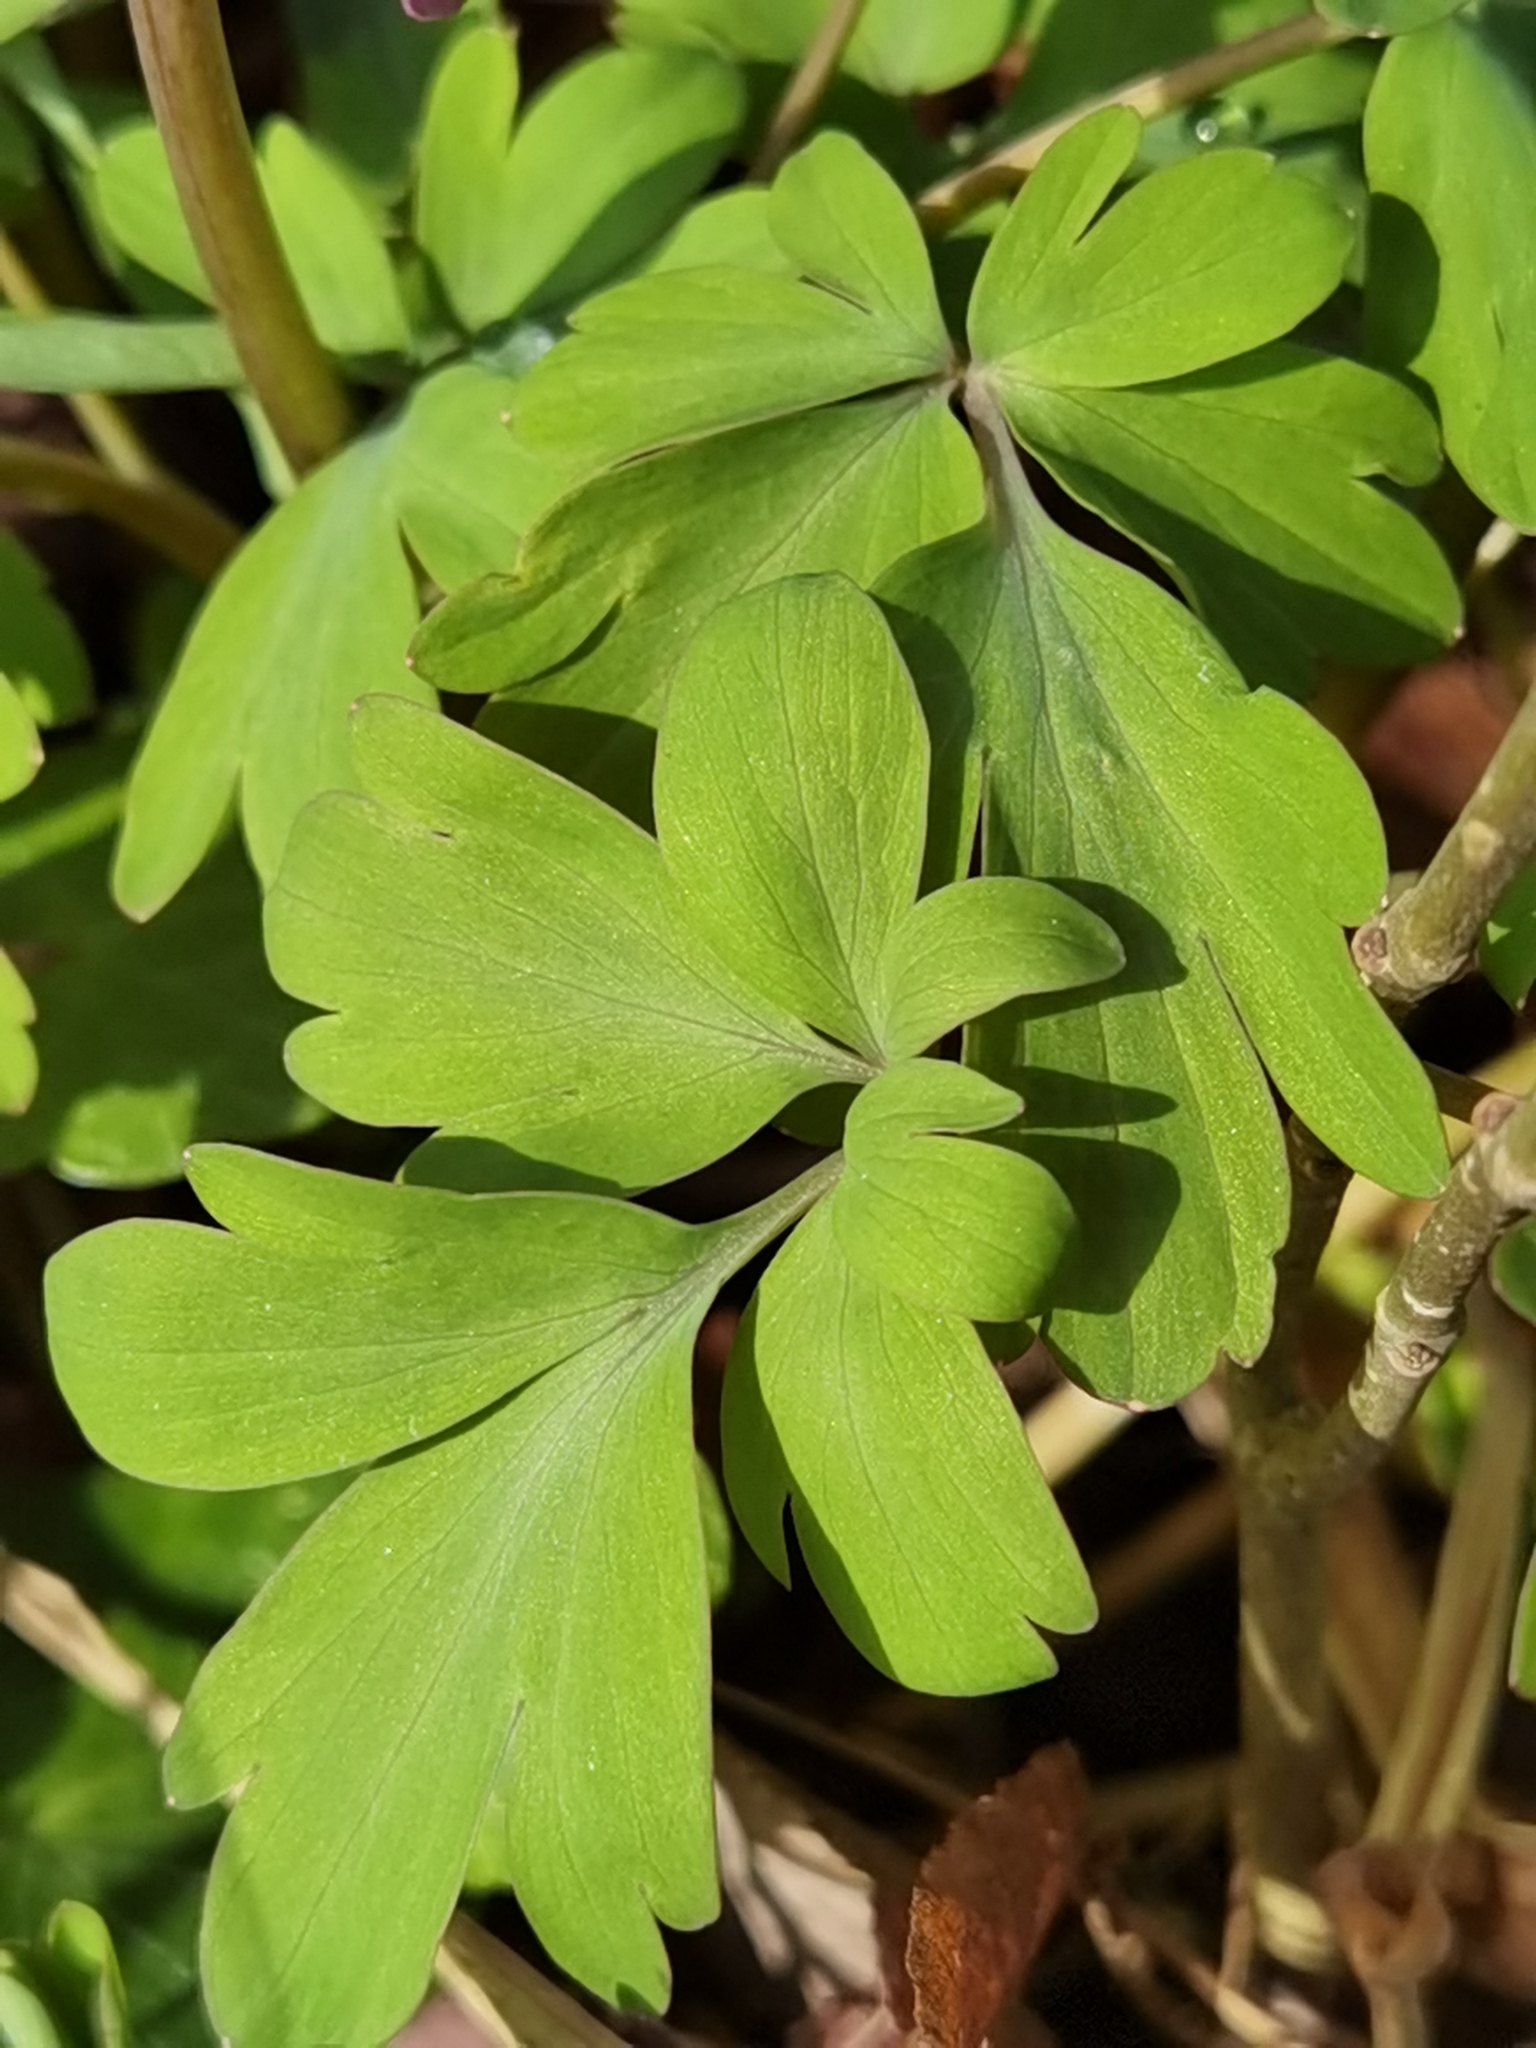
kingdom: Plantae
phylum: Tracheophyta
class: Magnoliopsida
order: Ranunculales
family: Papaveraceae
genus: Corydalis
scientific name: Corydalis cava
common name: Hollowroot
